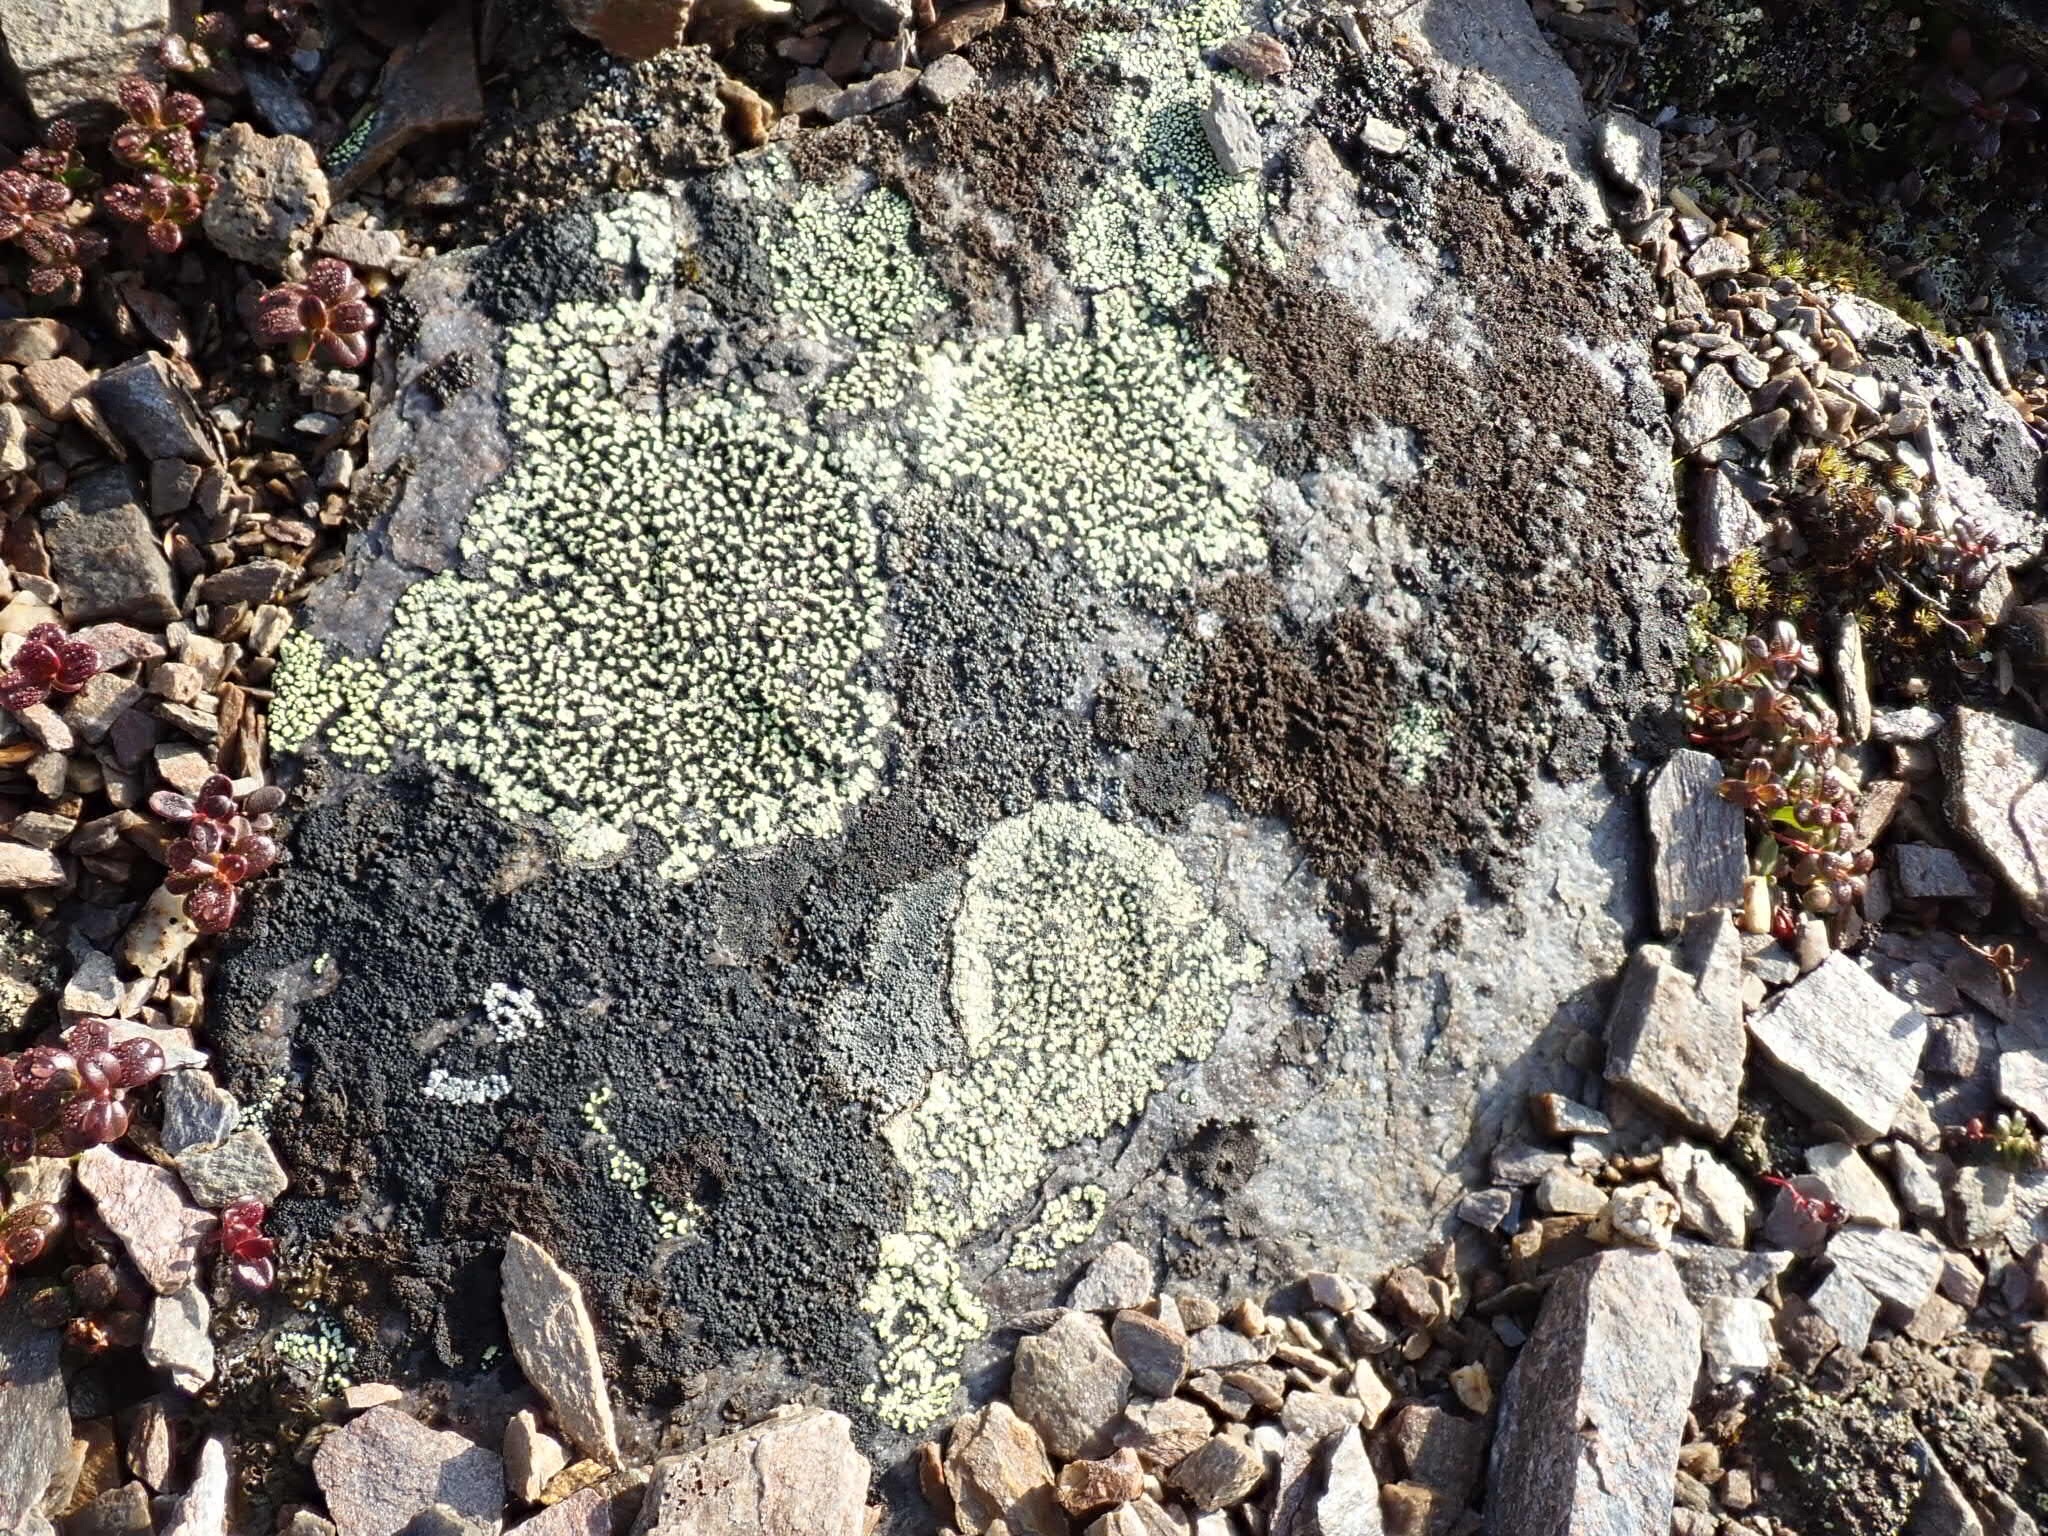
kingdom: Fungi
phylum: Ascomycota
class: Lecanoromycetes
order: Rhizocarpales
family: Rhizocarpaceae
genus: Rhizocarpon
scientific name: Rhizocarpon geographicum
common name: Yellow map lichen
